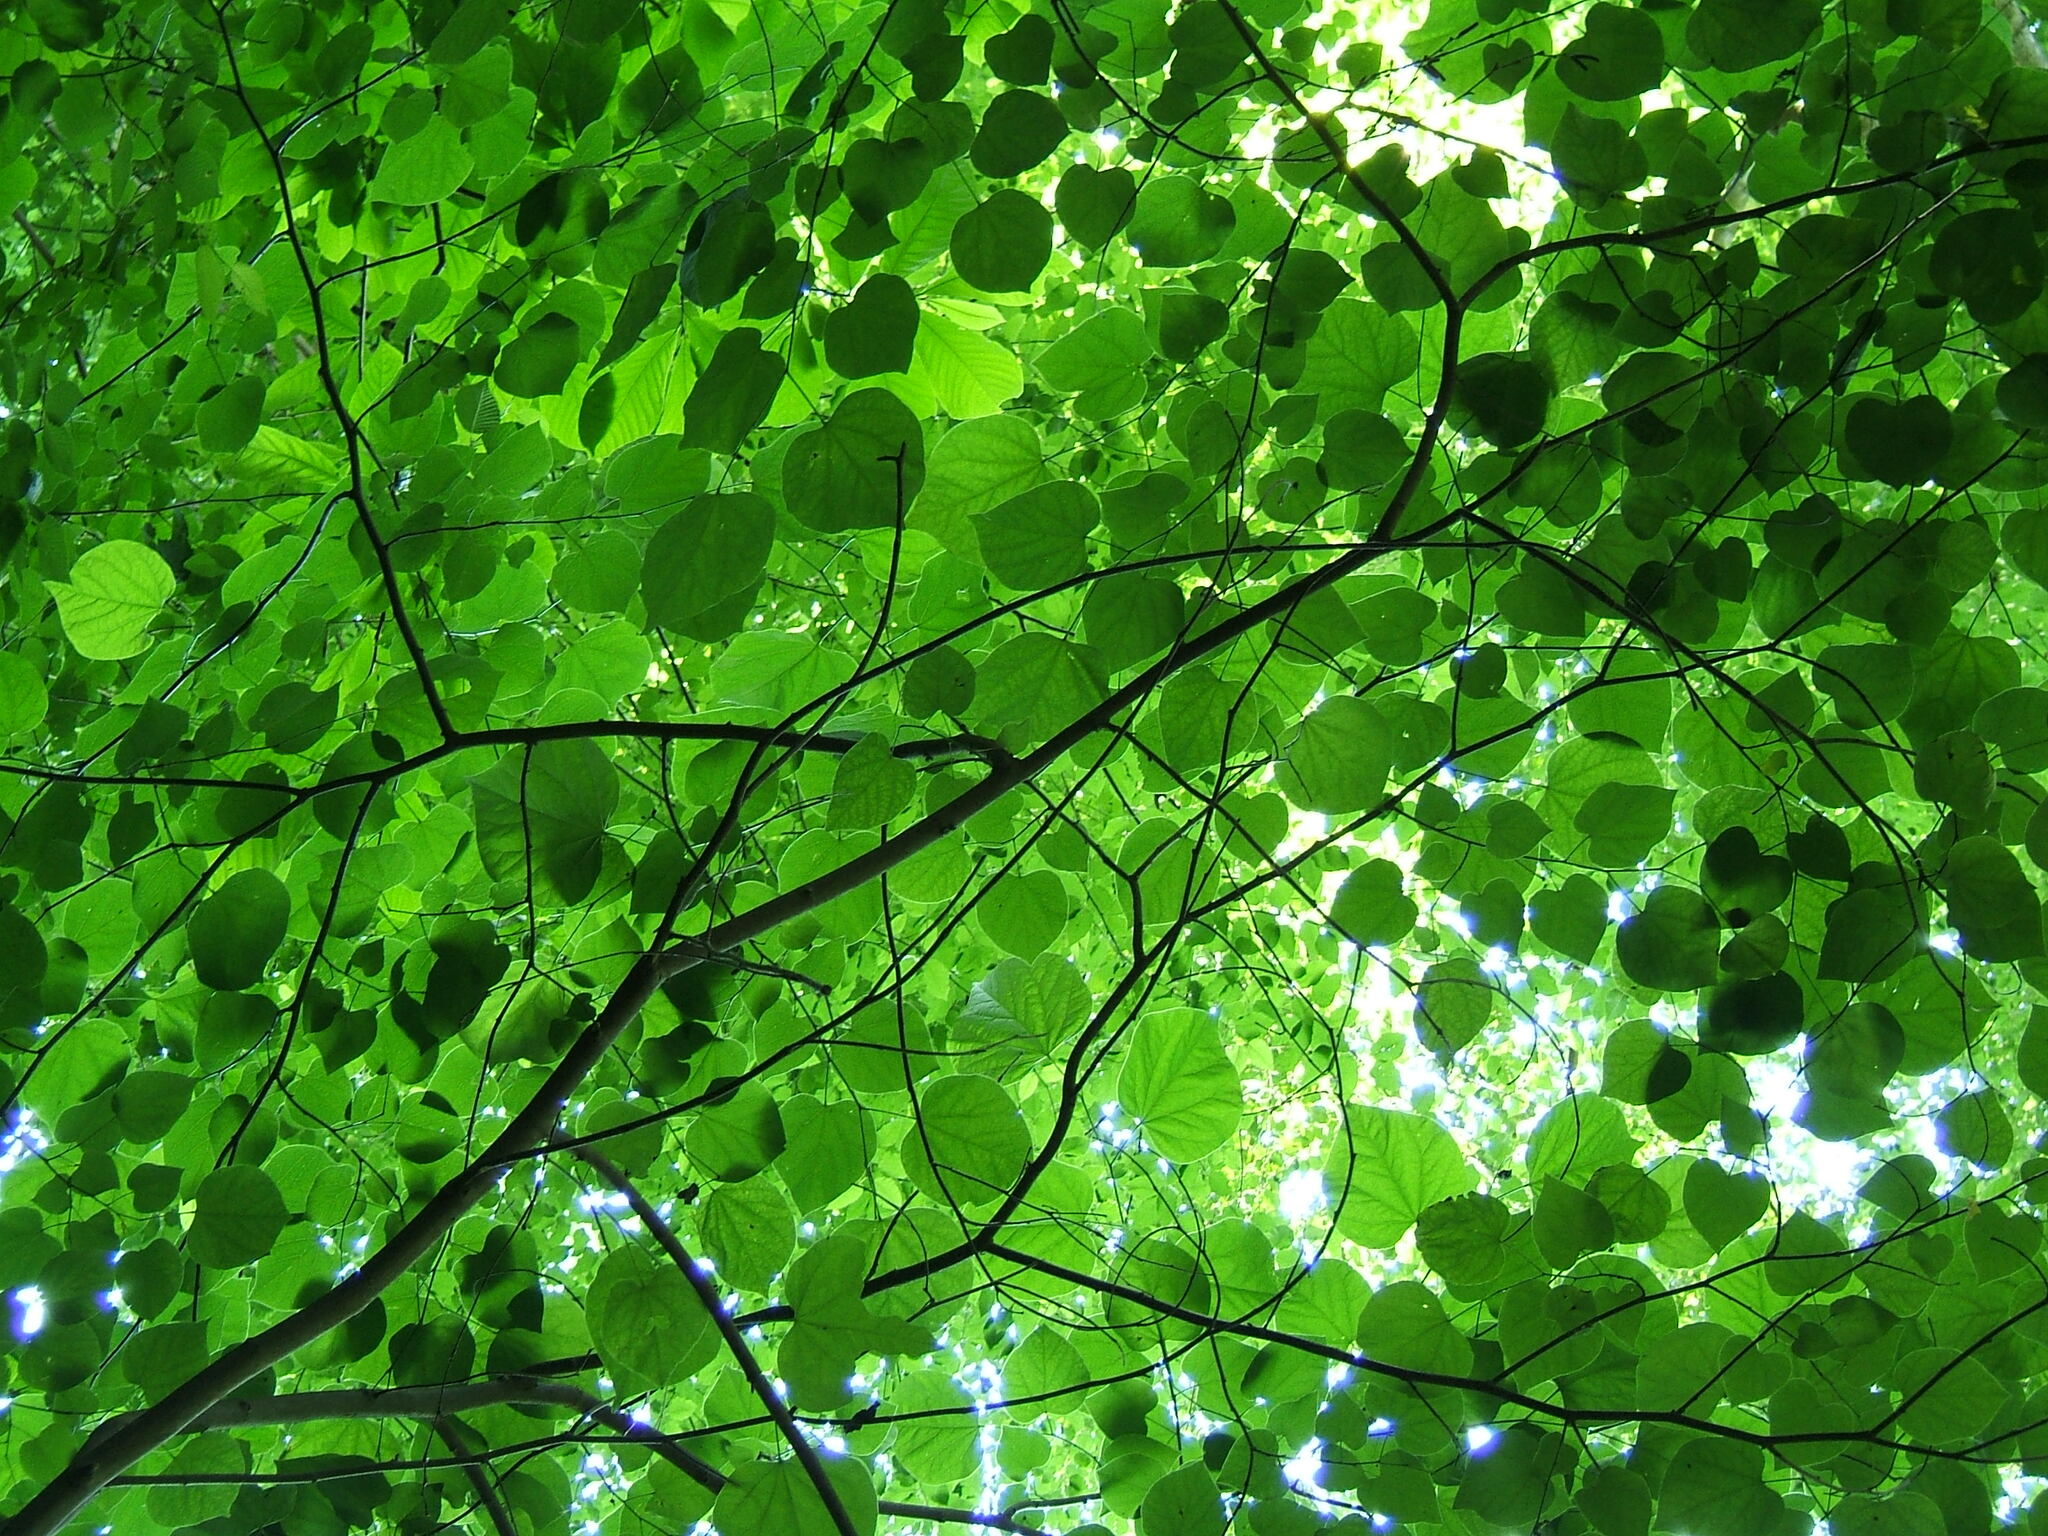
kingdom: Plantae
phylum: Tracheophyta
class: Magnoliopsida
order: Fabales
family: Fabaceae
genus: Cercis
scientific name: Cercis canadensis
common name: Eastern redbud
